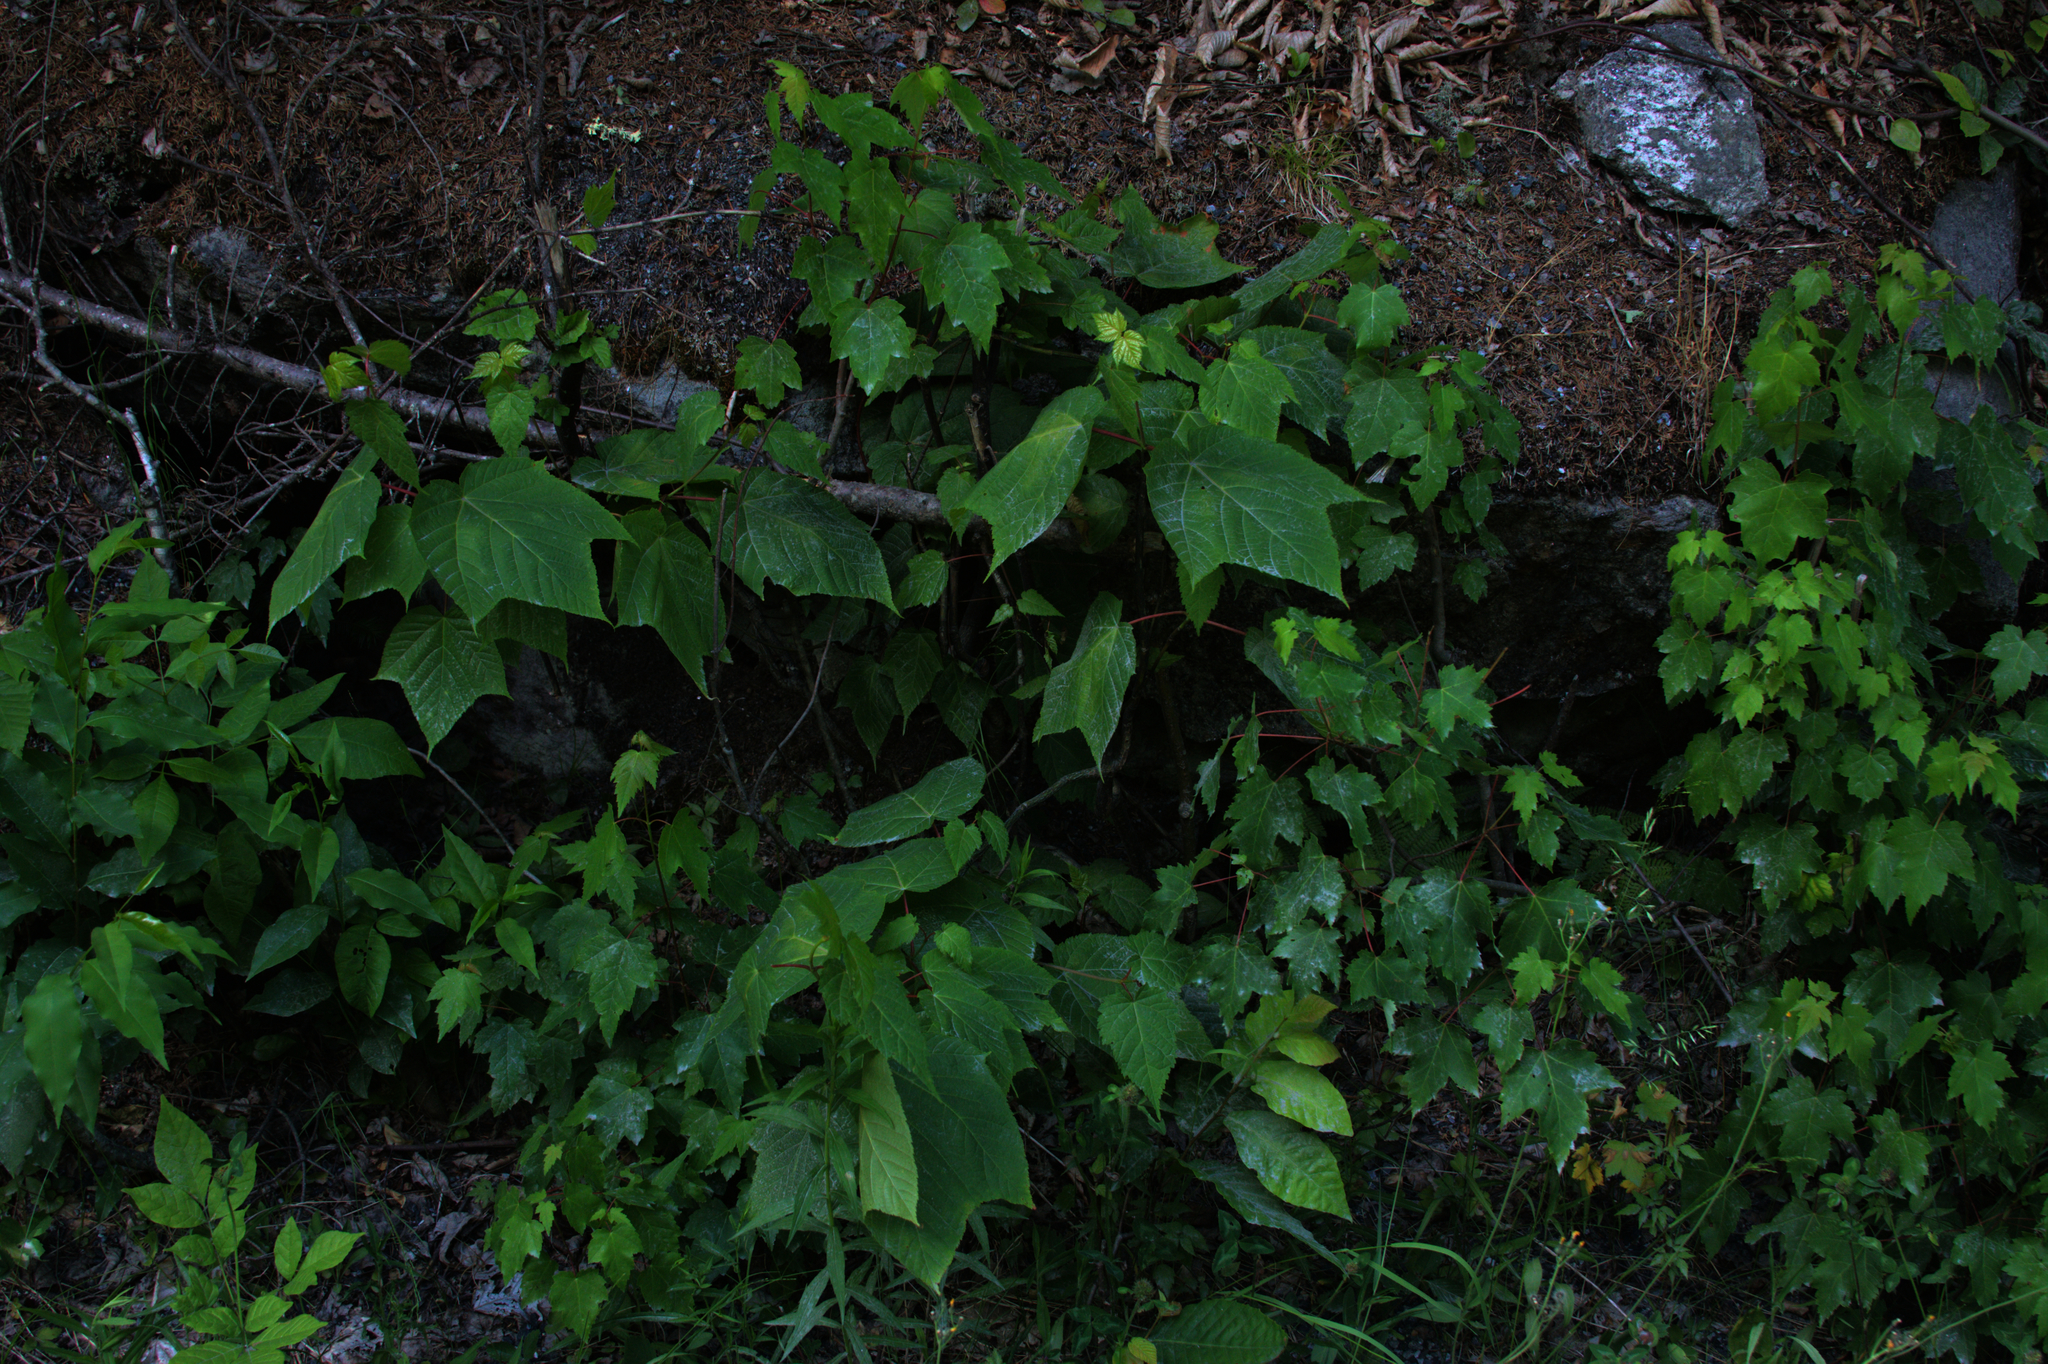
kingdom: Plantae
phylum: Tracheophyta
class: Magnoliopsida
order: Sapindales
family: Sapindaceae
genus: Acer
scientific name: Acer rubrum
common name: Red maple
